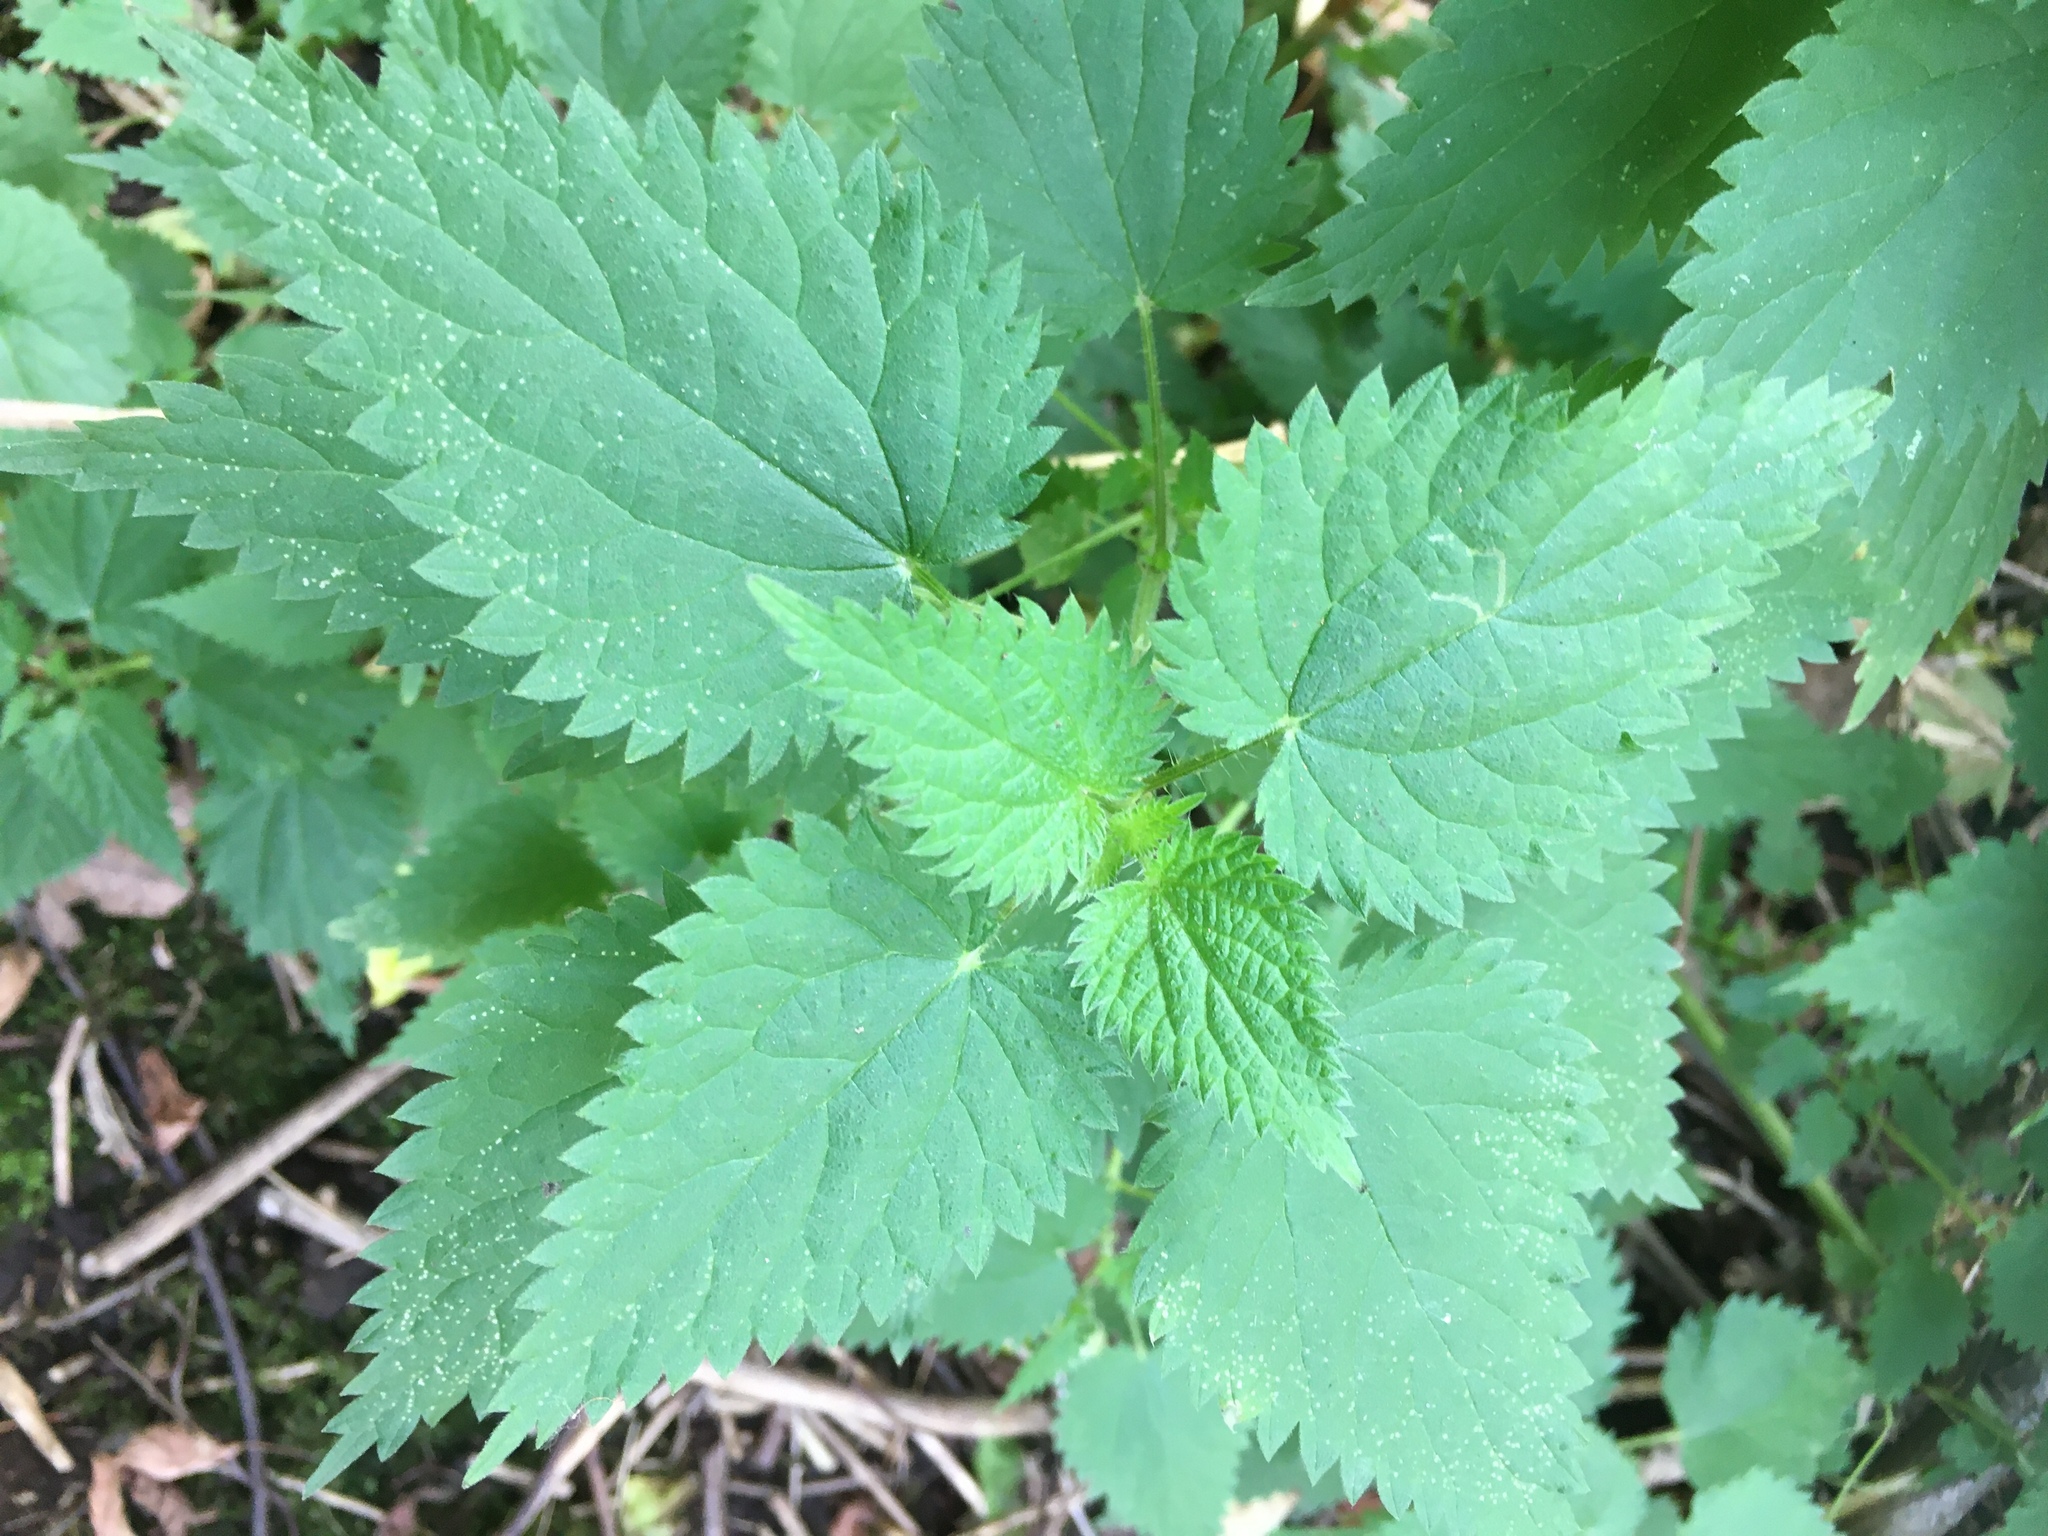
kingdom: Plantae
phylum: Tracheophyta
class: Magnoliopsida
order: Rosales
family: Urticaceae
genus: Urtica
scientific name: Urtica dioica
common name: Common nettle
